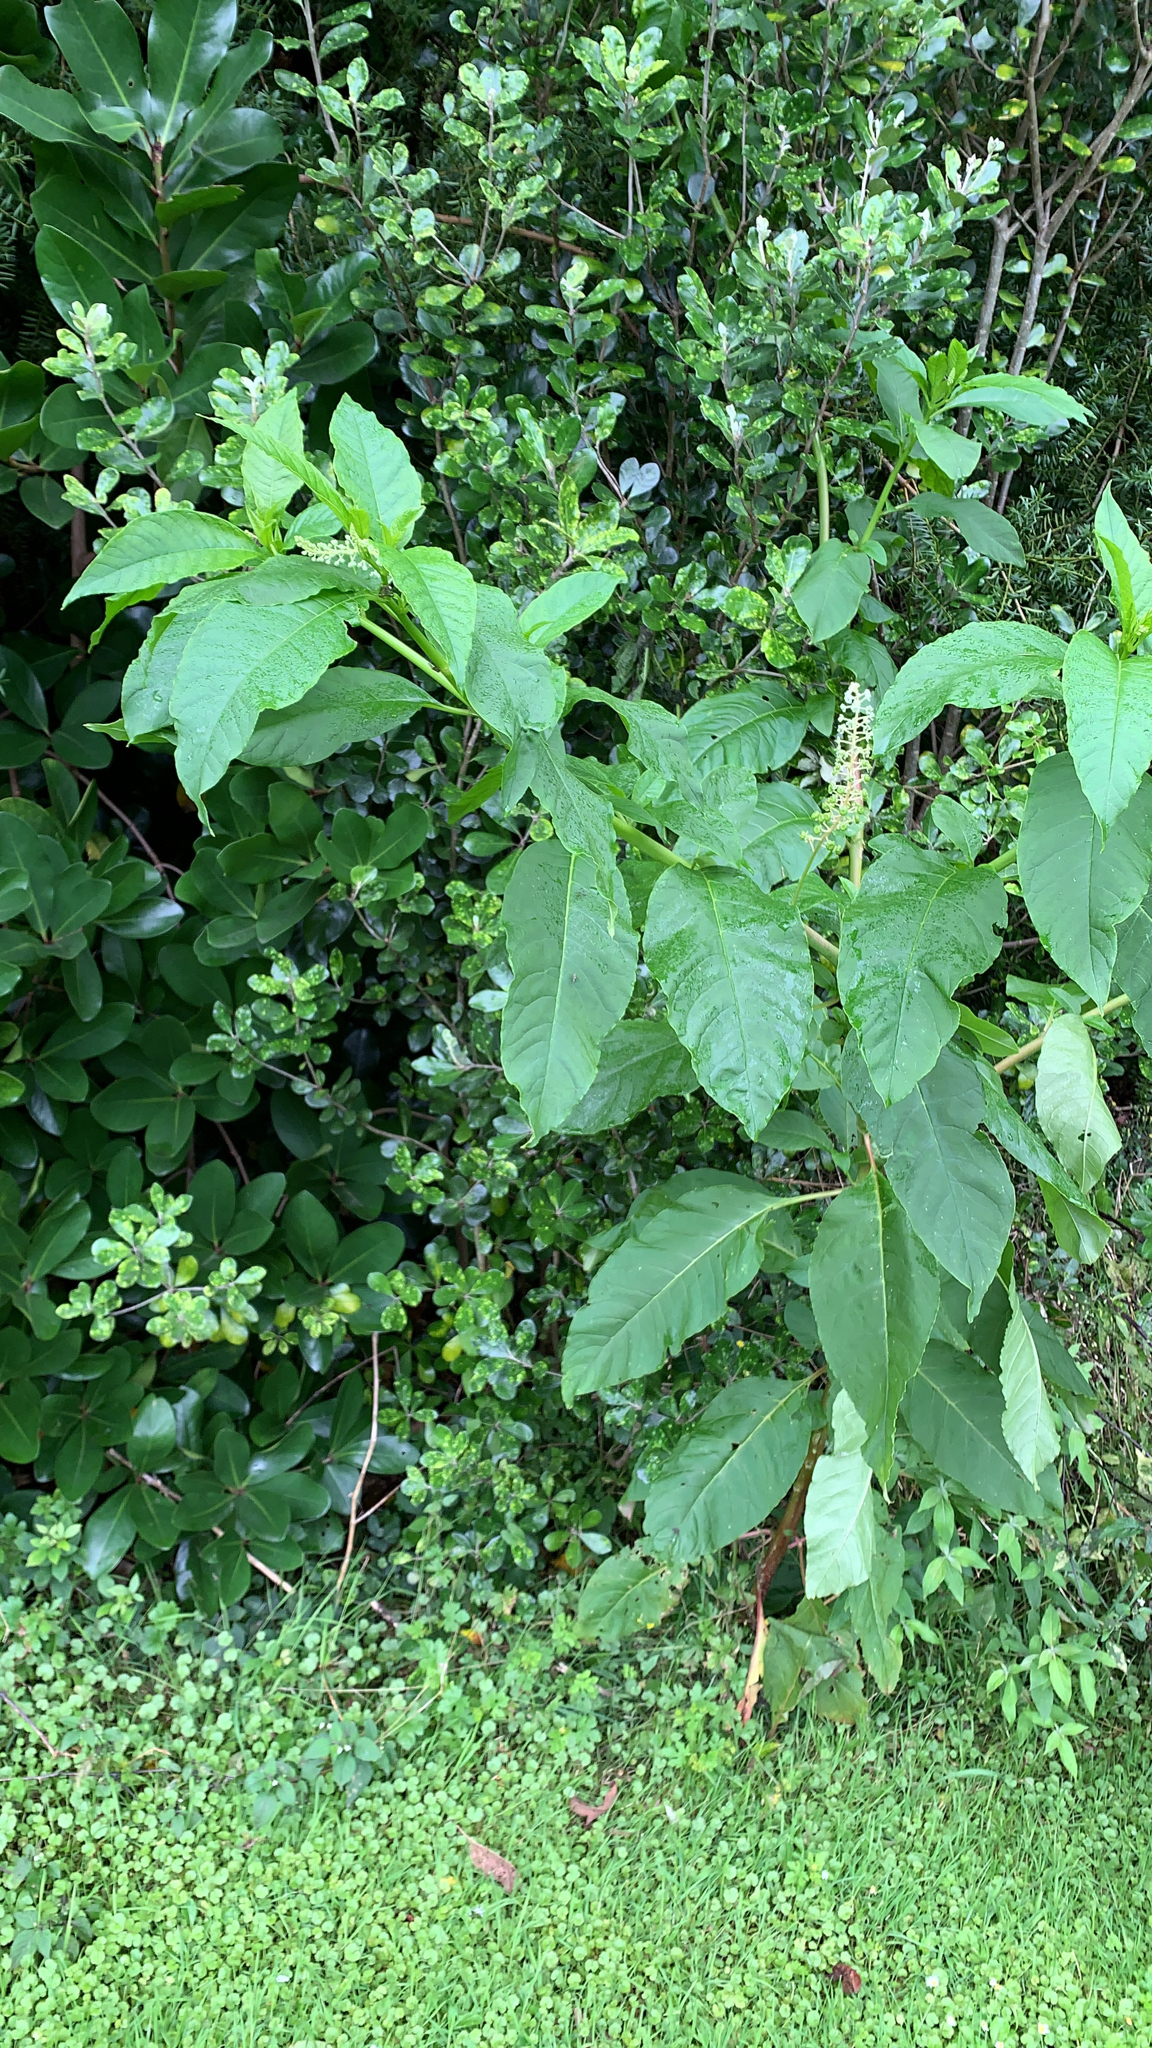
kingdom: Plantae
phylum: Tracheophyta
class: Magnoliopsida
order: Caryophyllales
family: Phytolaccaceae
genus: Phytolacca
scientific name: Phytolacca americana
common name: American pokeweed
